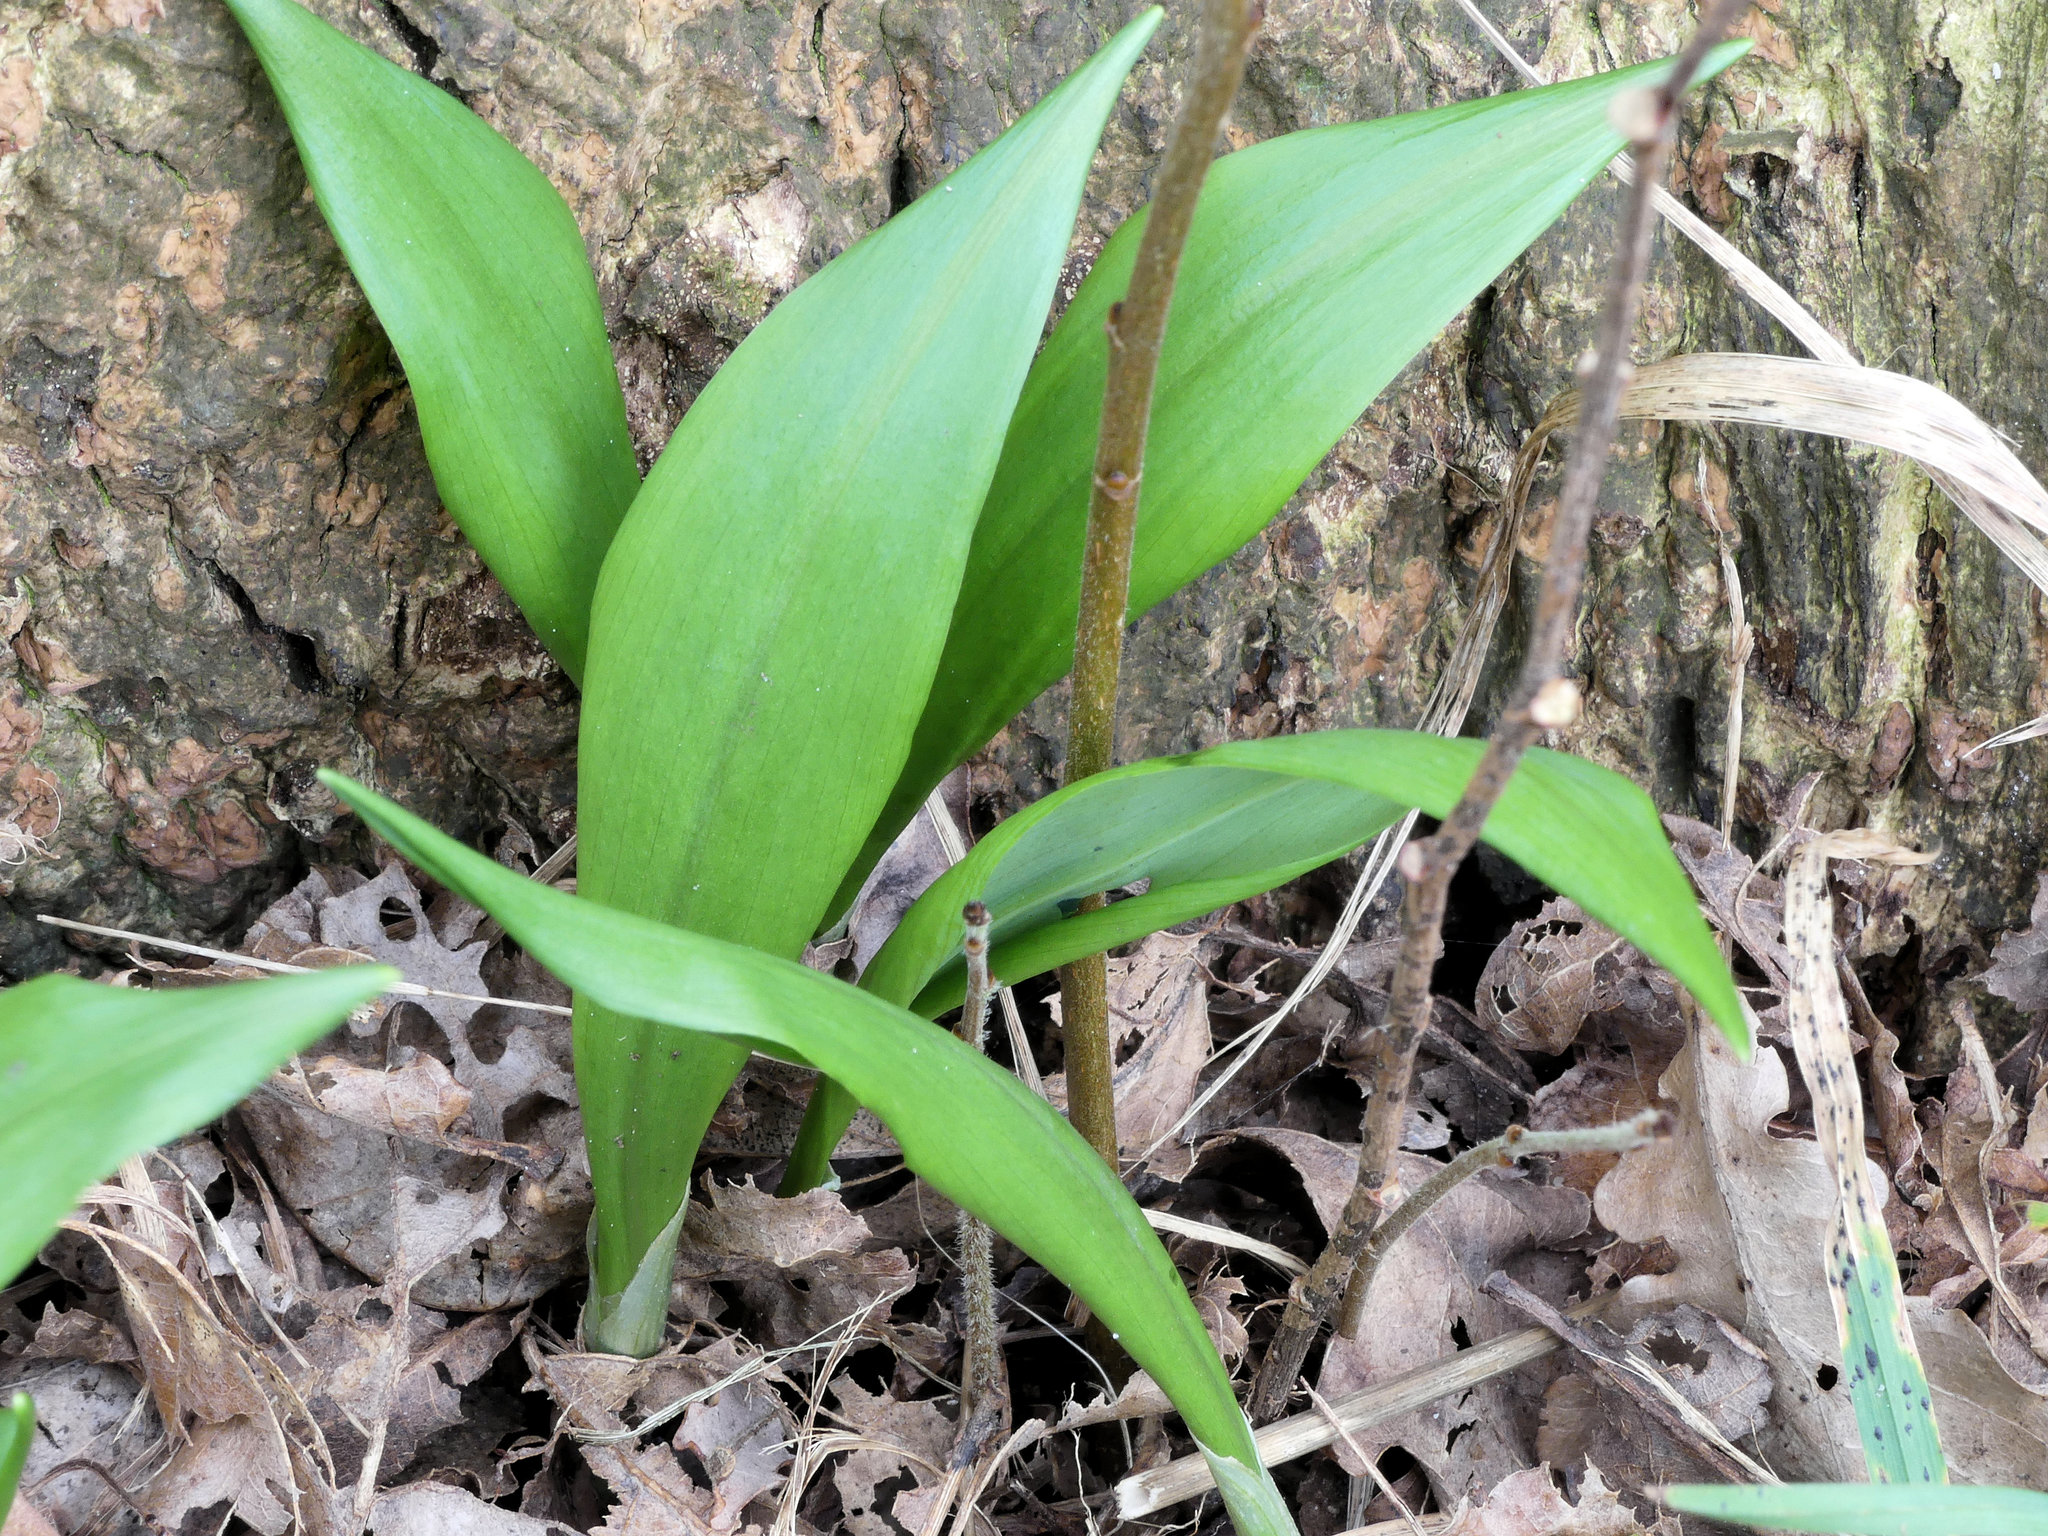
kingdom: Plantae
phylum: Tracheophyta
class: Liliopsida
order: Asparagales
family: Amaryllidaceae
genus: Allium
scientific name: Allium ursinum
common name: Ramsons
